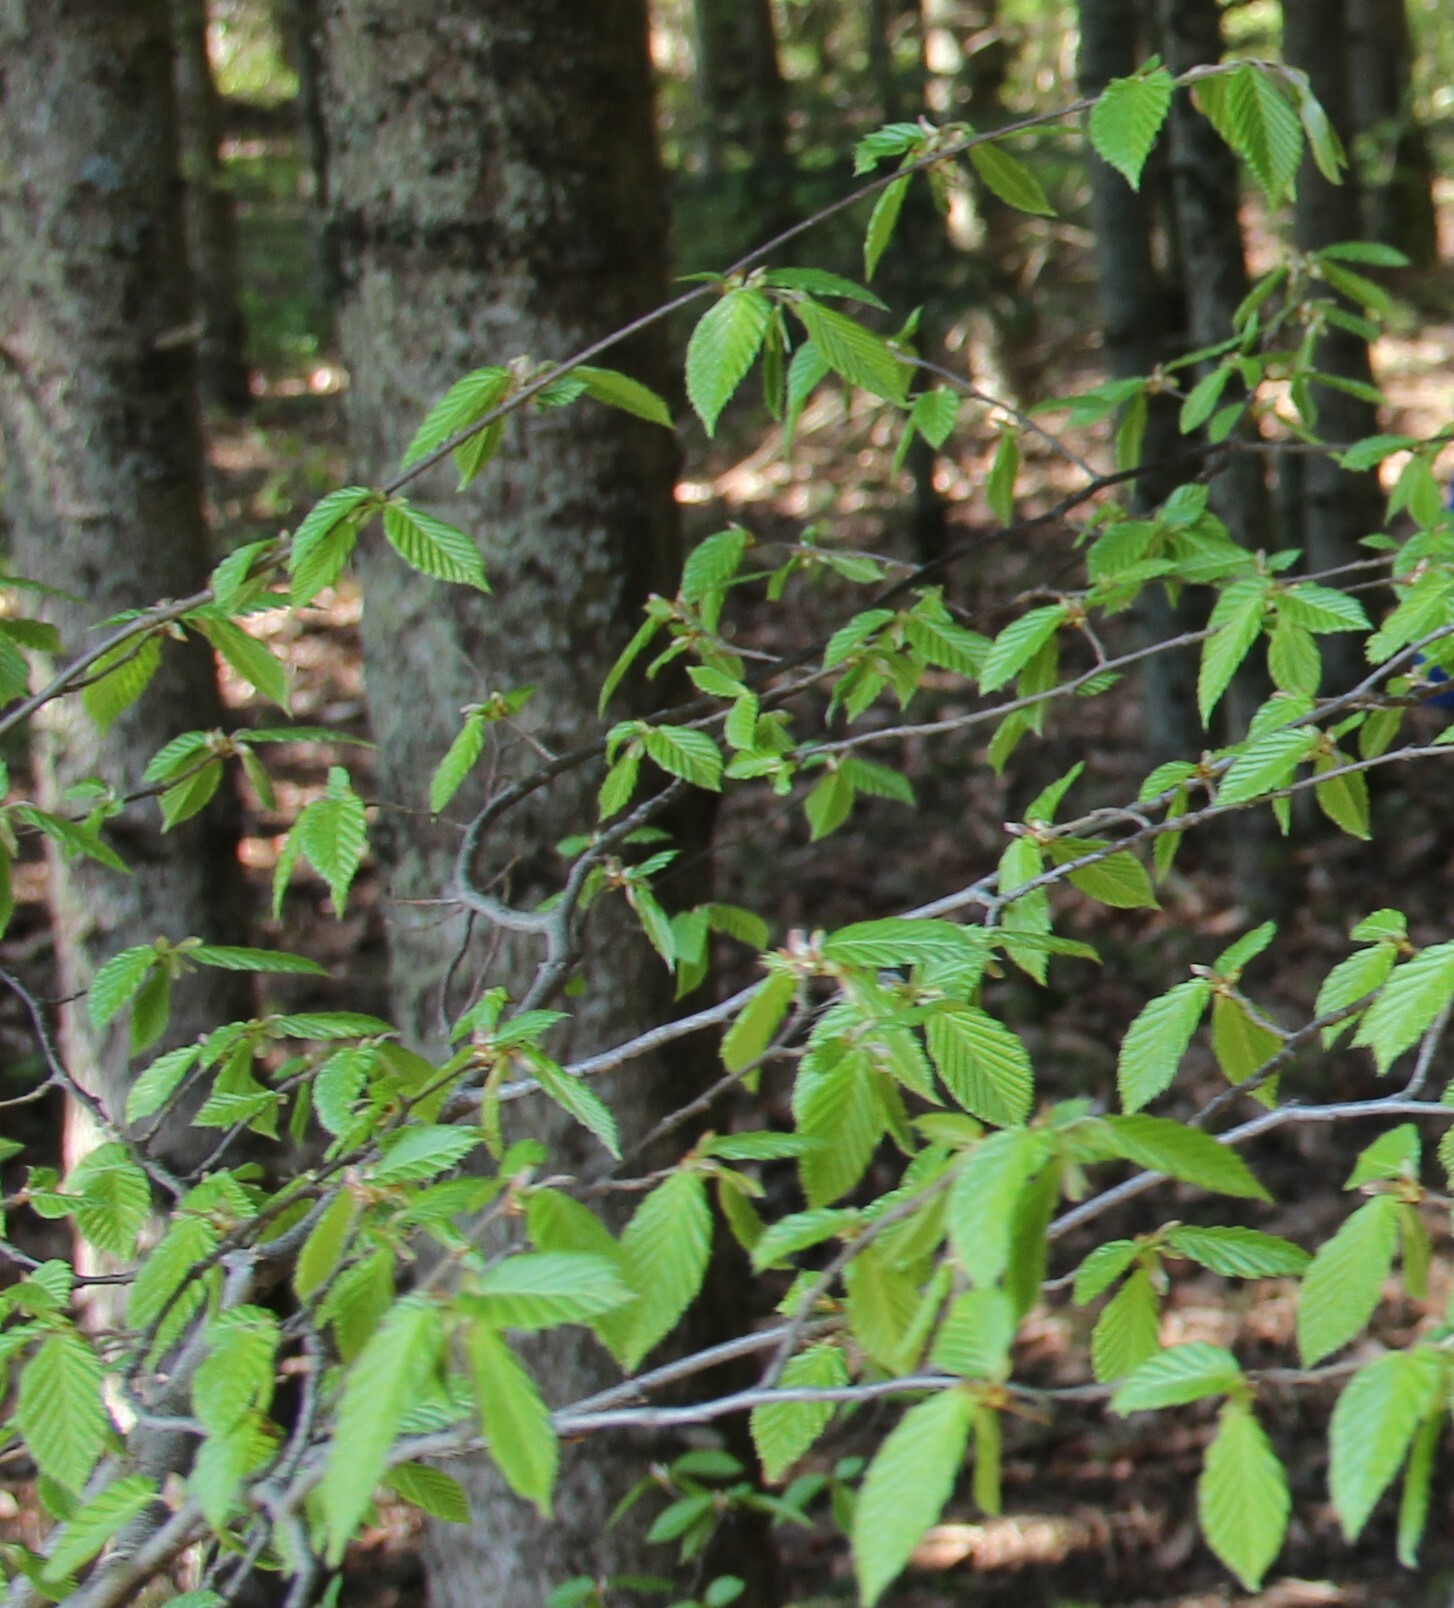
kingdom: Plantae
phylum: Tracheophyta
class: Magnoliopsida
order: Fagales
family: Fagaceae
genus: Fagus
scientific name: Fagus orientalis
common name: Oriental beech
